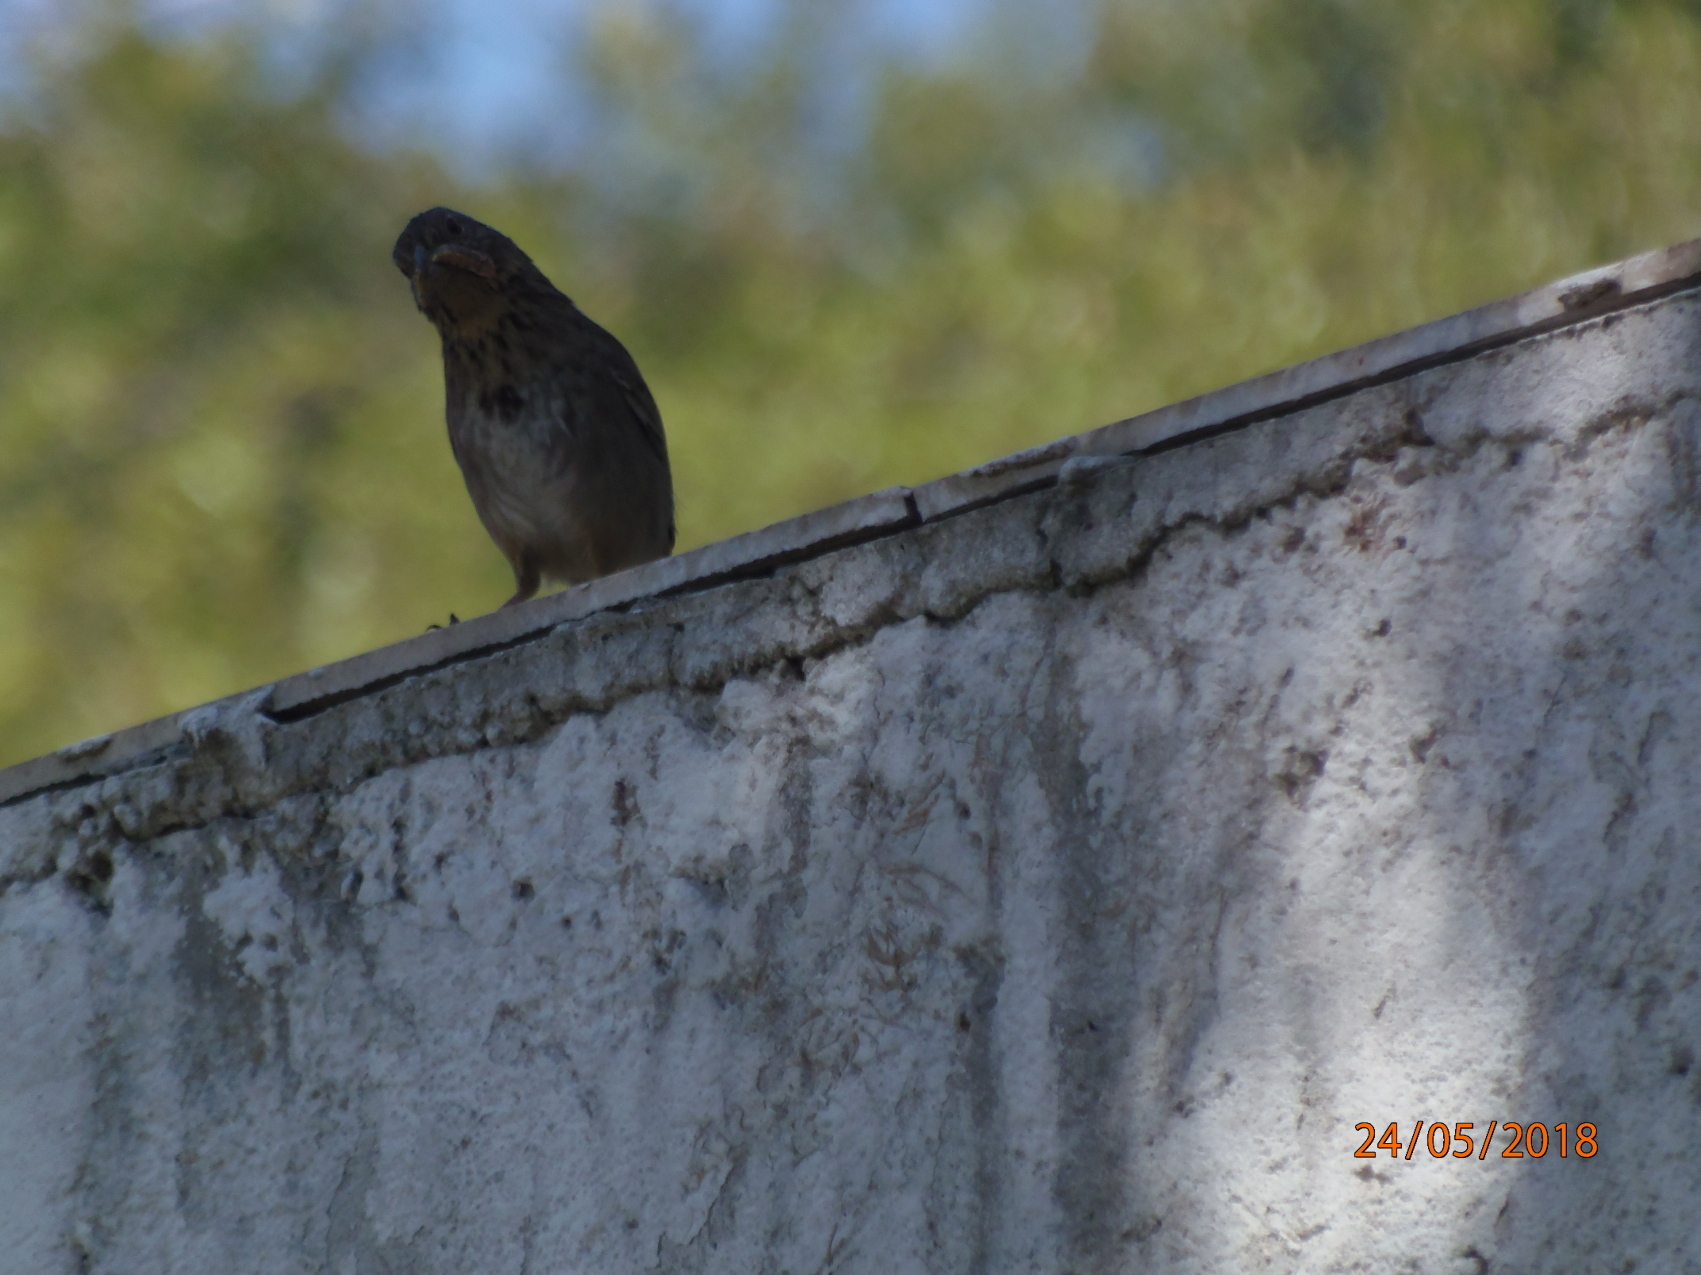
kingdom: Animalia
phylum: Chordata
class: Aves
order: Passeriformes
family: Passerellidae
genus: Melozone
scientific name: Melozone fusca
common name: Canyon towhee
